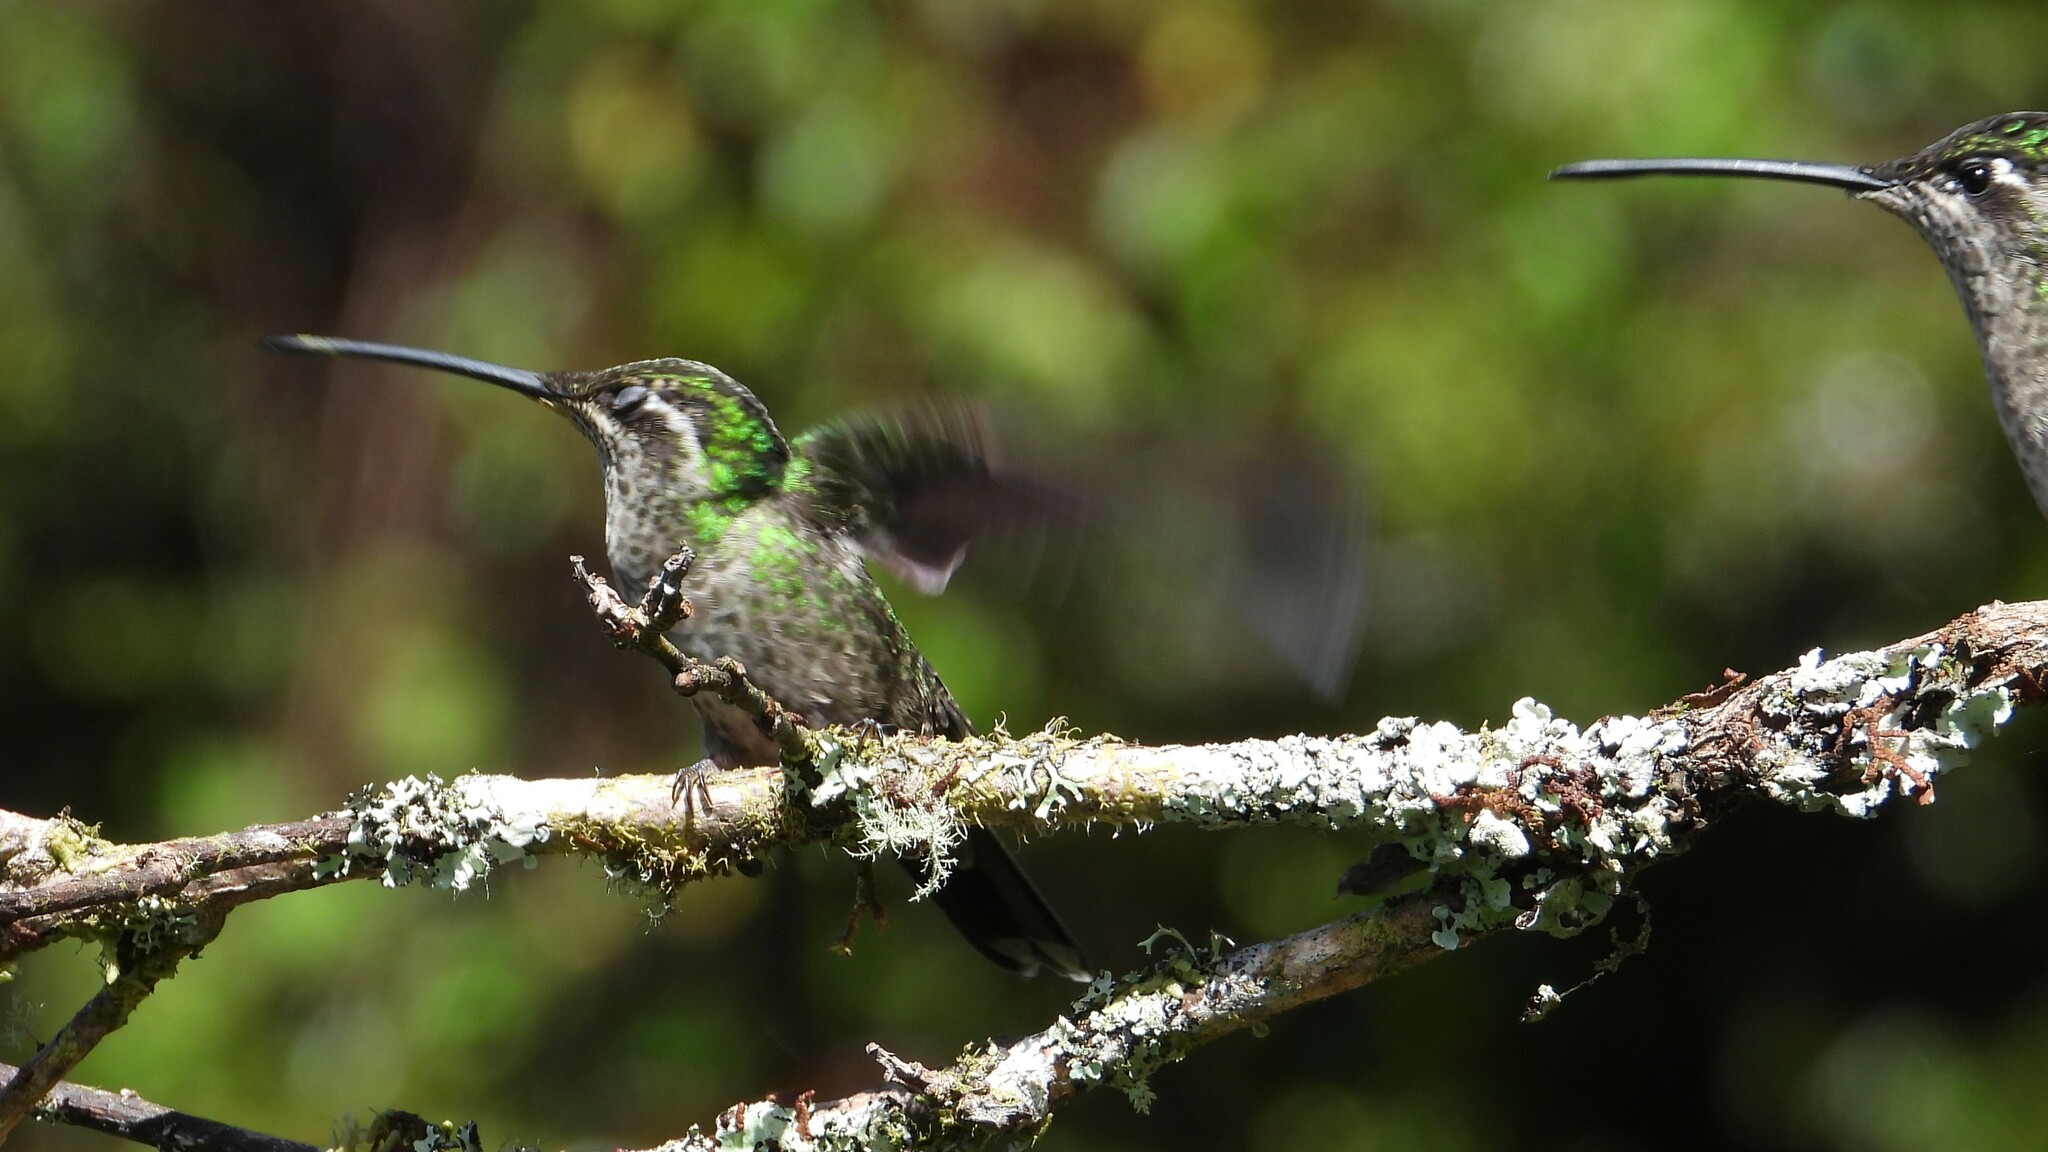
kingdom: Animalia
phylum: Chordata
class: Aves
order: Apodiformes
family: Trochilidae
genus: Eugenes
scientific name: Eugenes spectabilis
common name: Talamanca hummingbird
